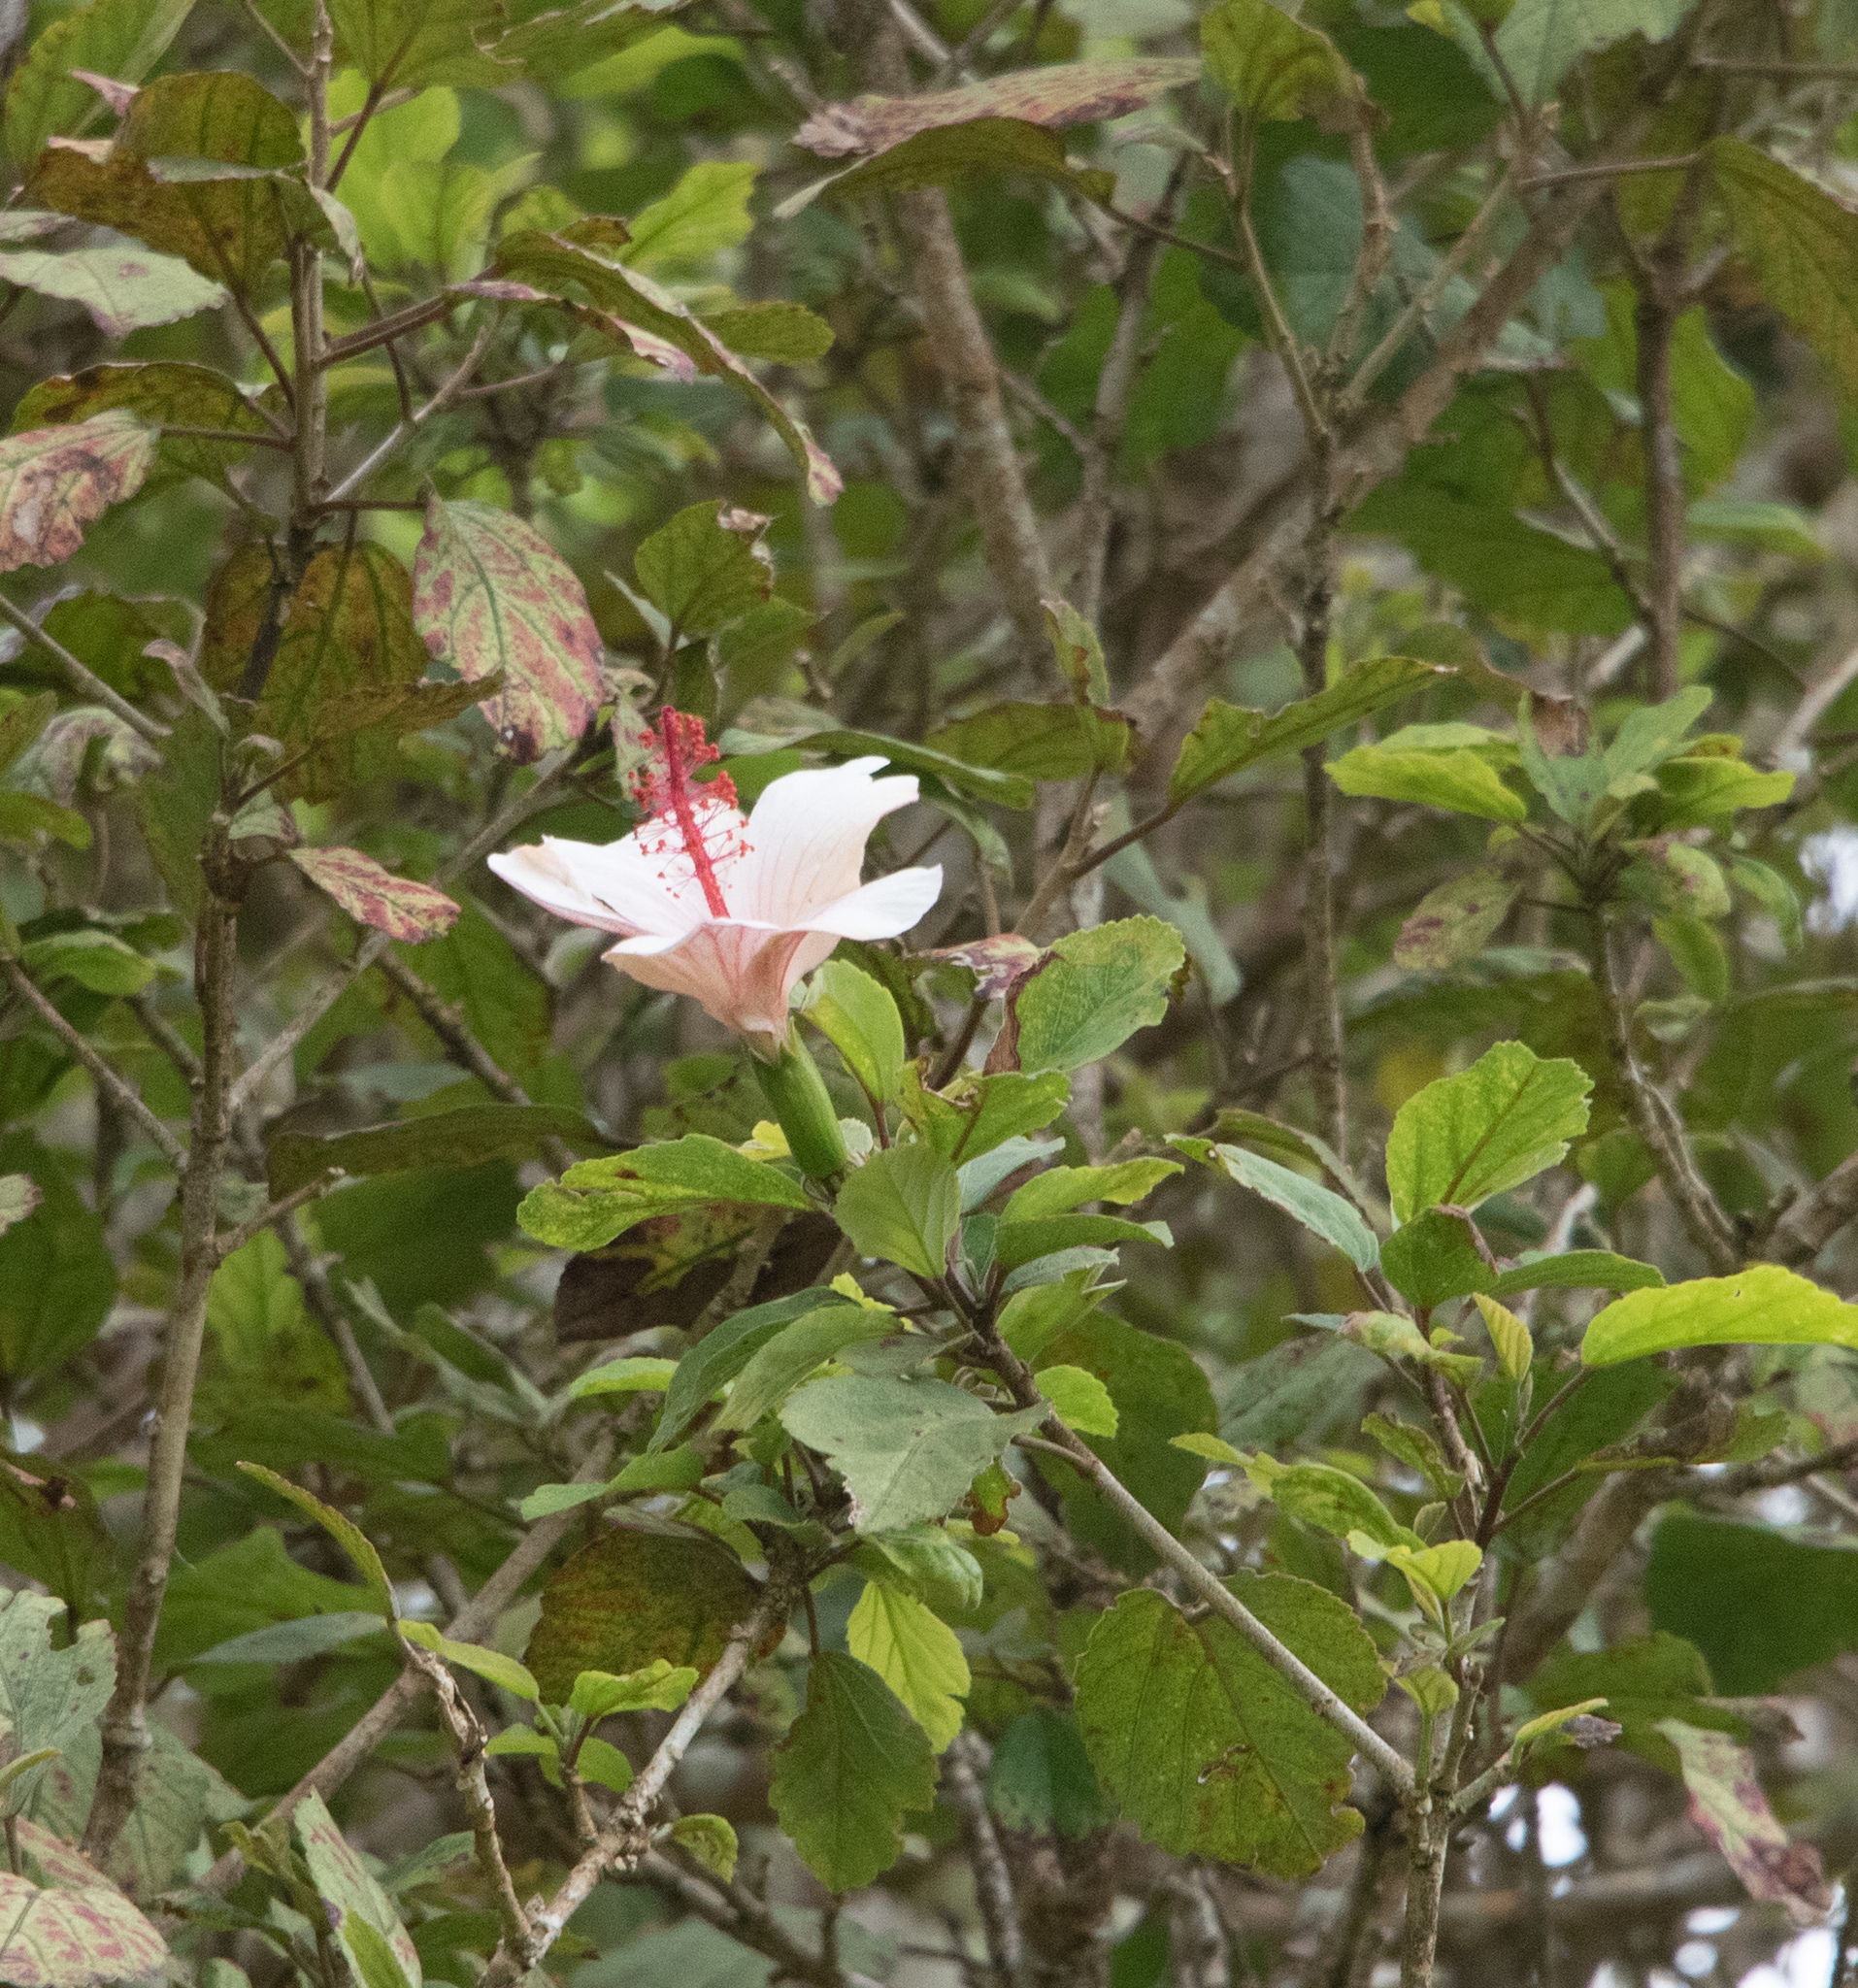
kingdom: Plantae
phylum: Tracheophyta
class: Magnoliopsida
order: Malvales
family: Malvaceae
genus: Hibiscus
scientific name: Hibiscus waimeae
